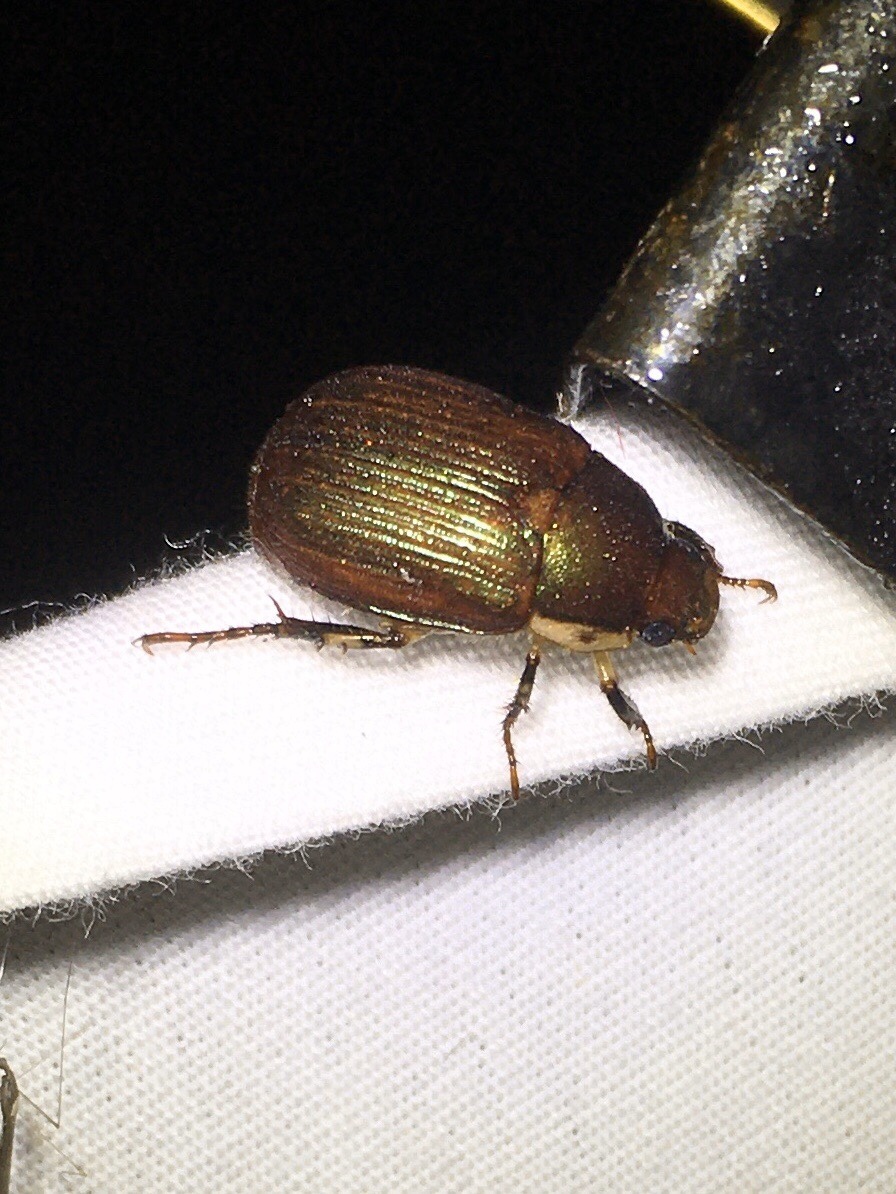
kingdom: Animalia
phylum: Arthropoda
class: Insecta
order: Coleoptera
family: Scarabaeidae
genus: Callistethus
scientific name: Callistethus marginatus
